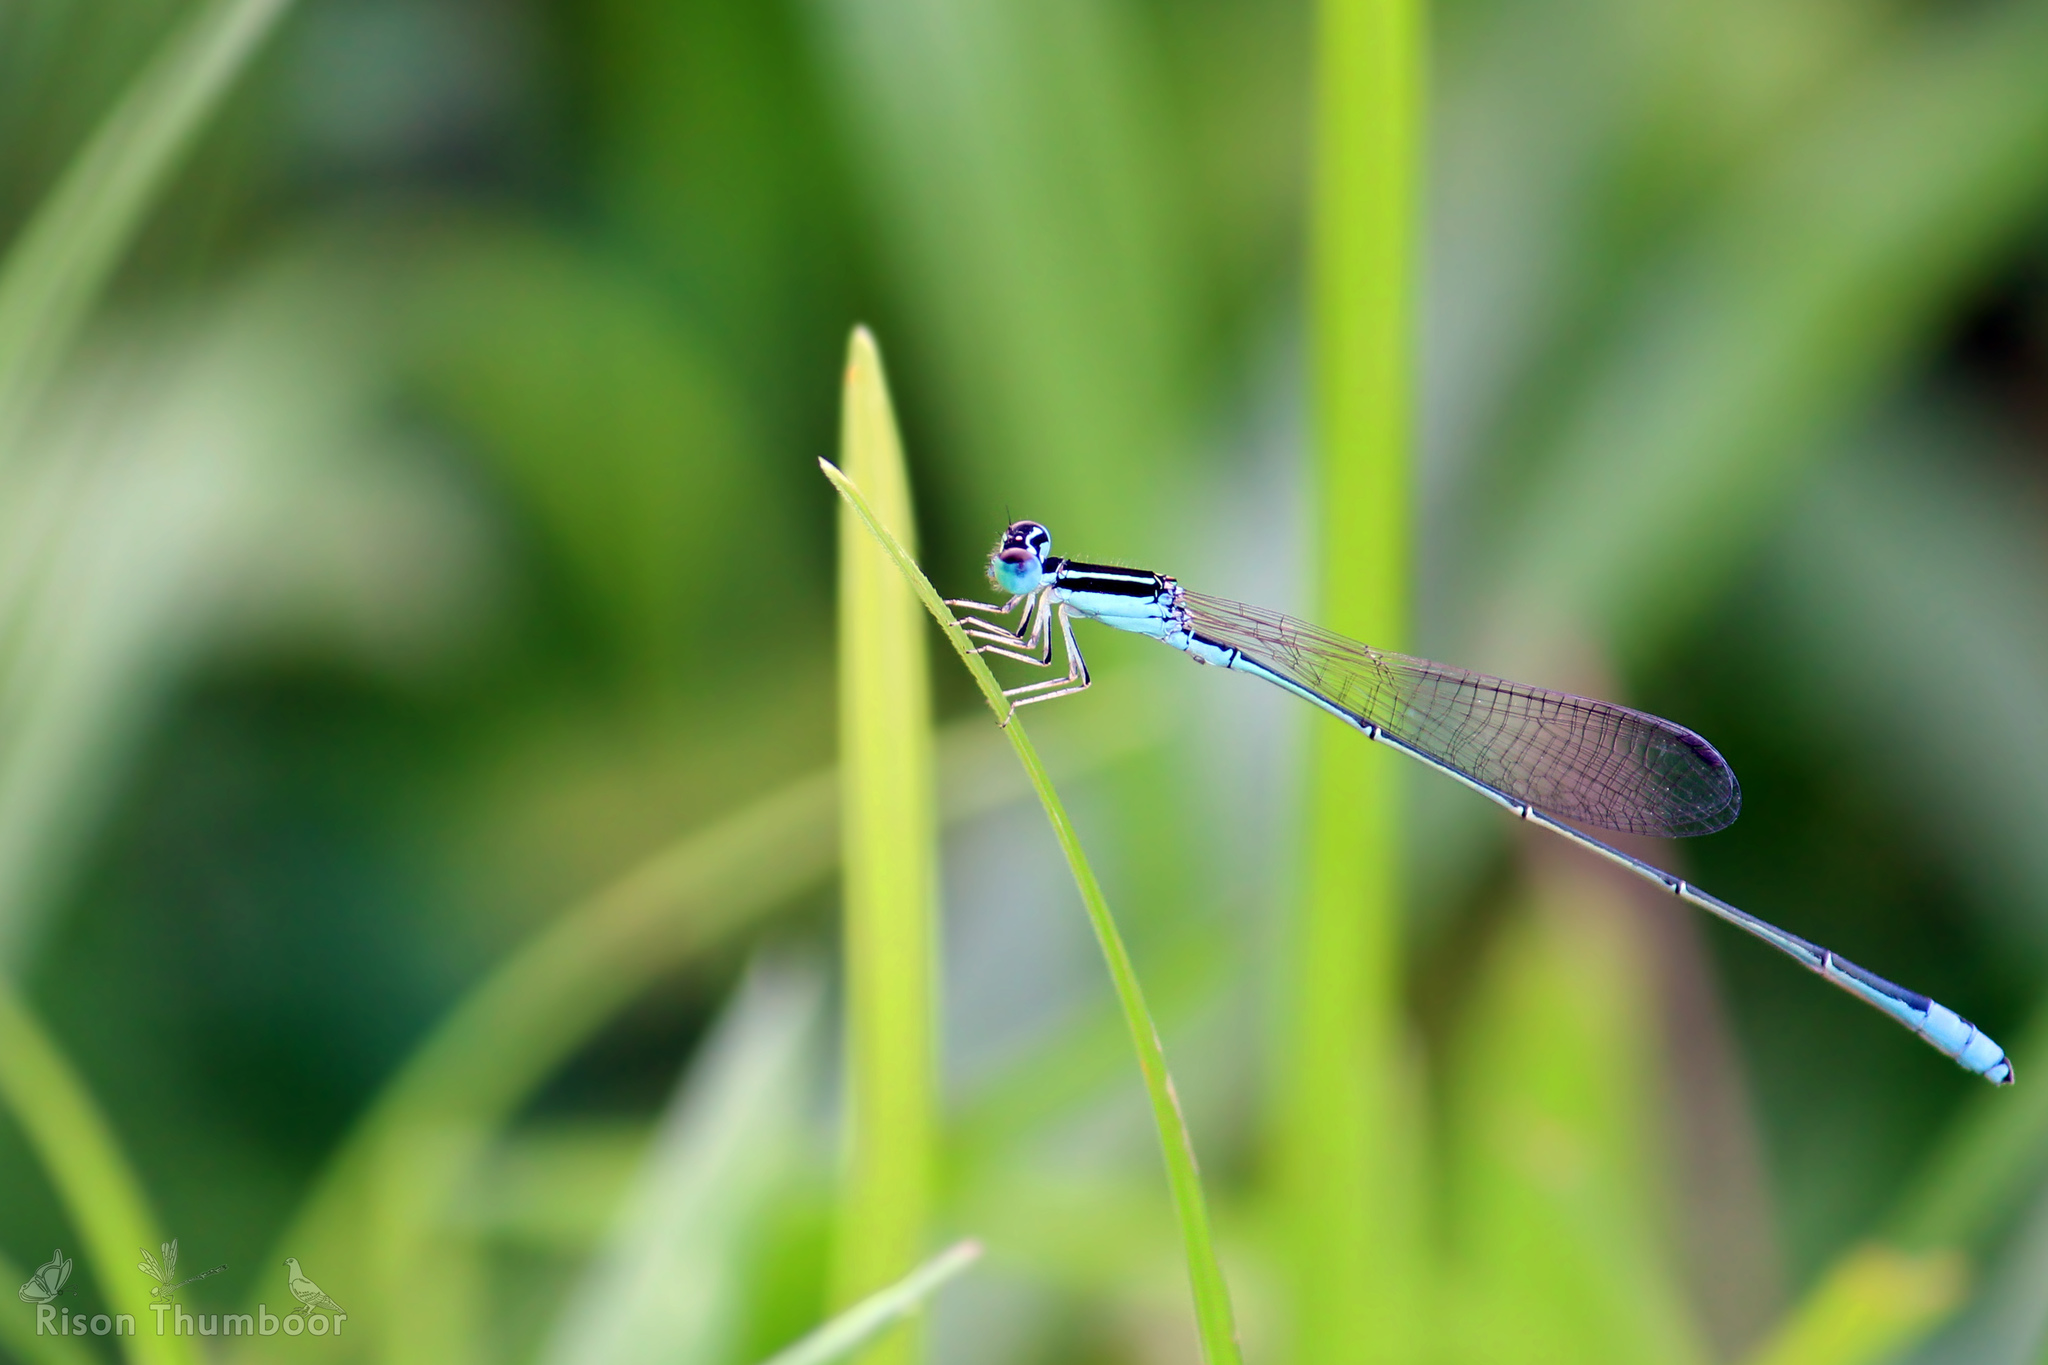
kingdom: Animalia
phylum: Arthropoda
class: Insecta
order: Odonata
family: Coenagrionidae
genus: Aciagrion
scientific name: Aciagrion occidentale
